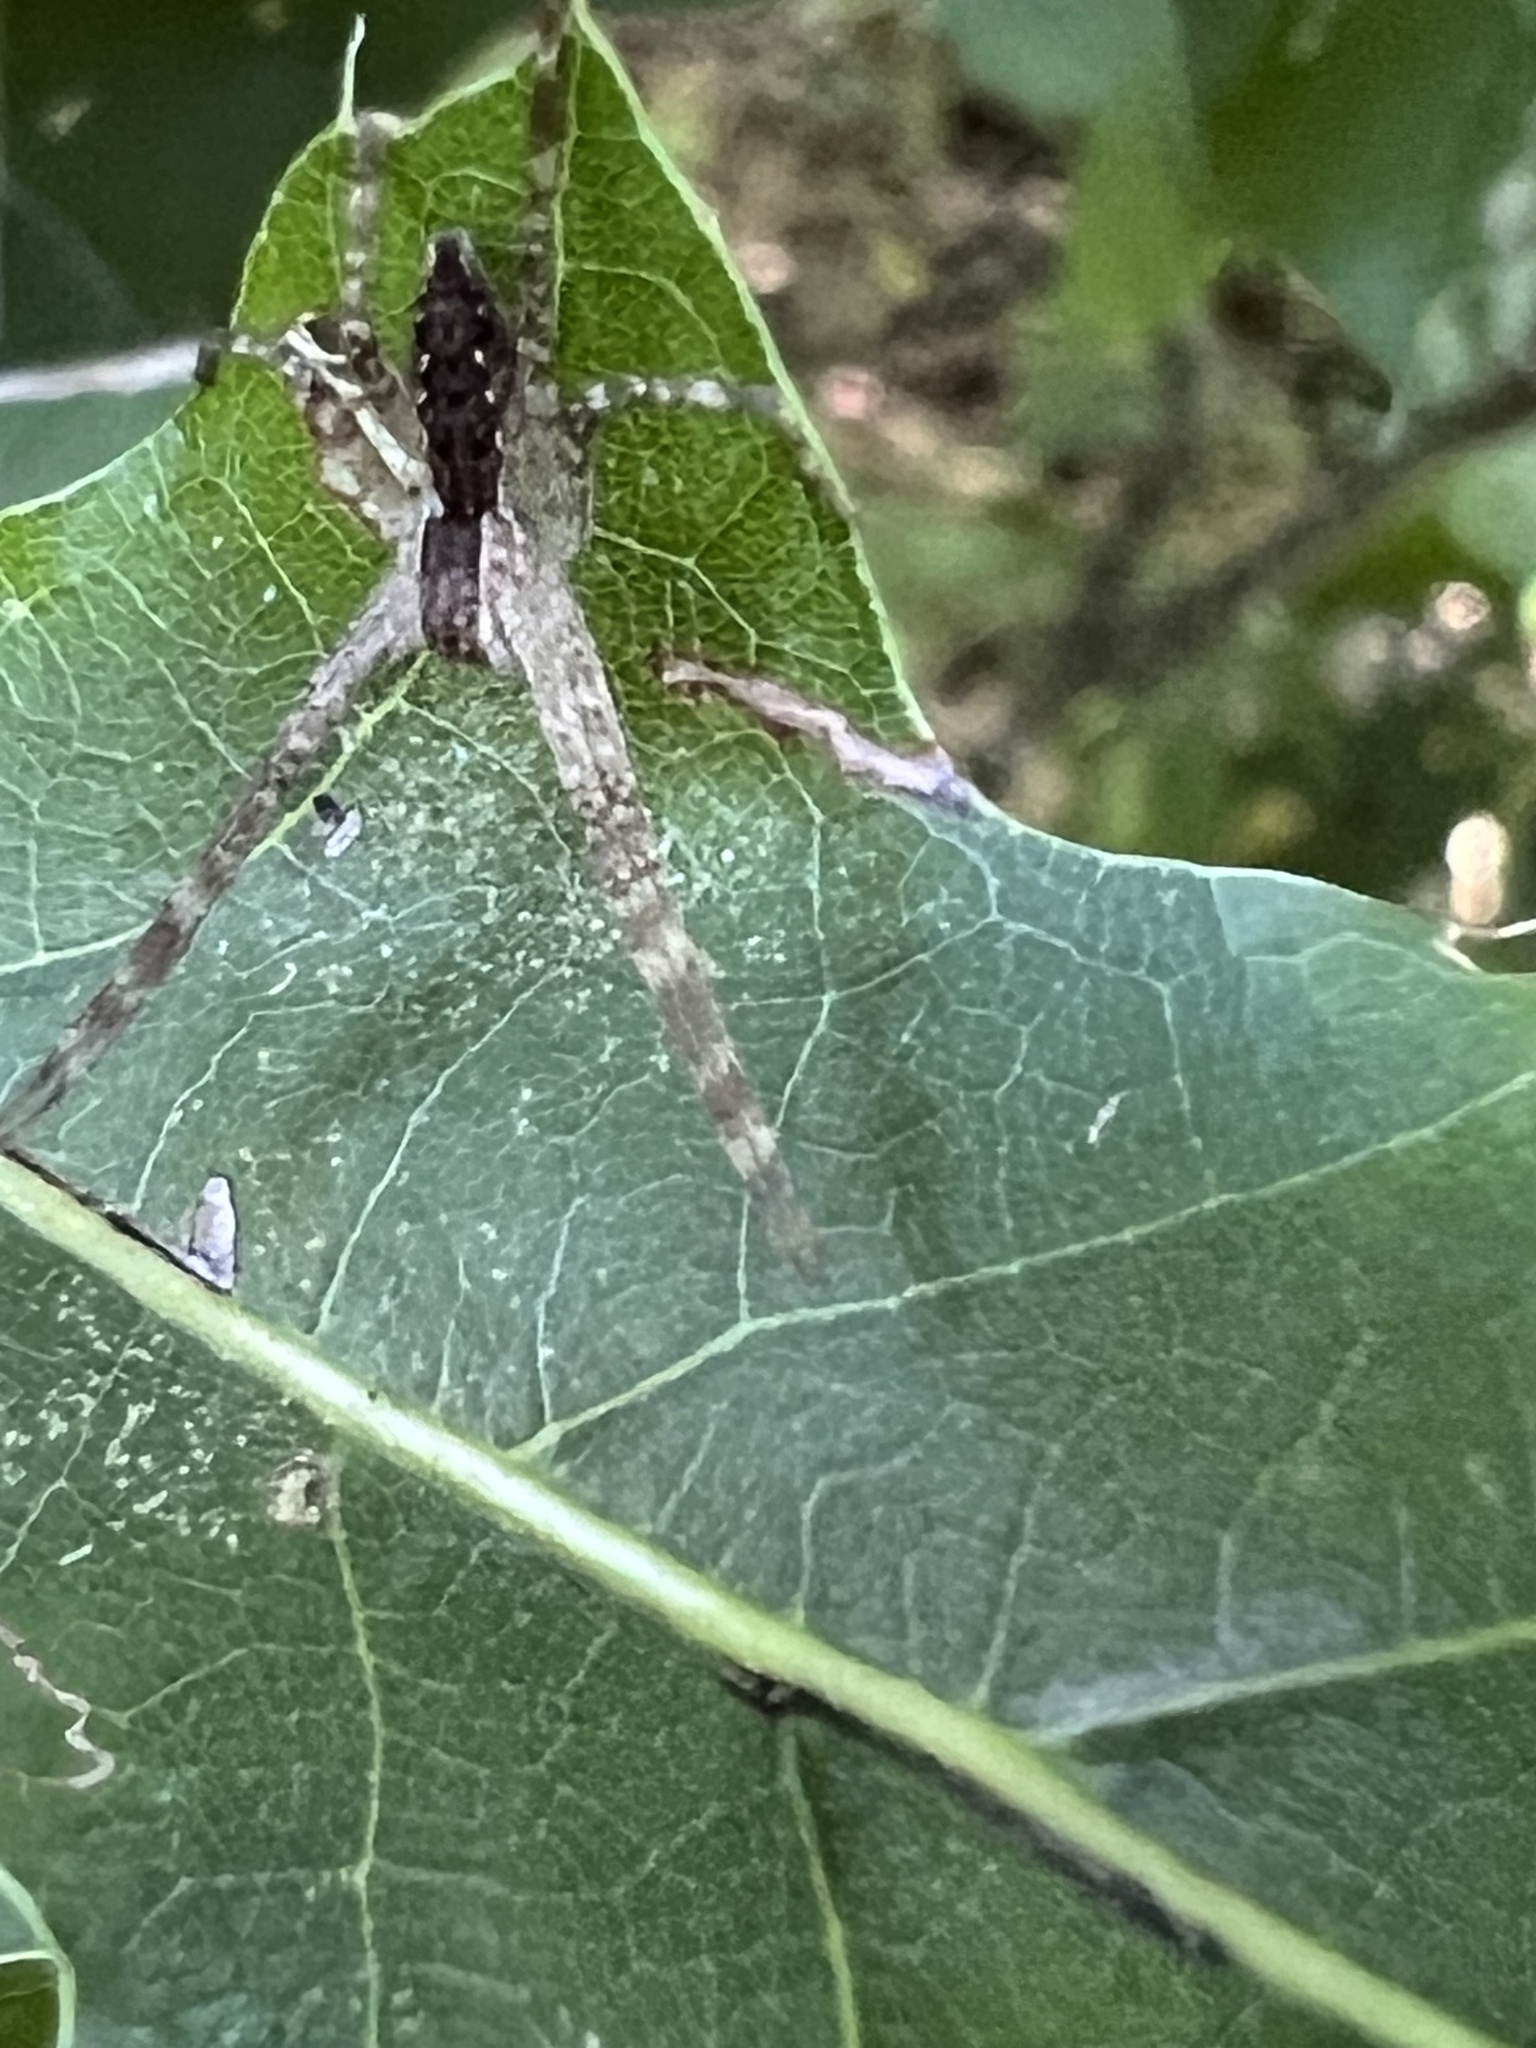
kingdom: Animalia
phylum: Arthropoda
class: Arachnida
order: Araneae
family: Pisauridae
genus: Pisaurina
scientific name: Pisaurina mira
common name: American nursery web spider
